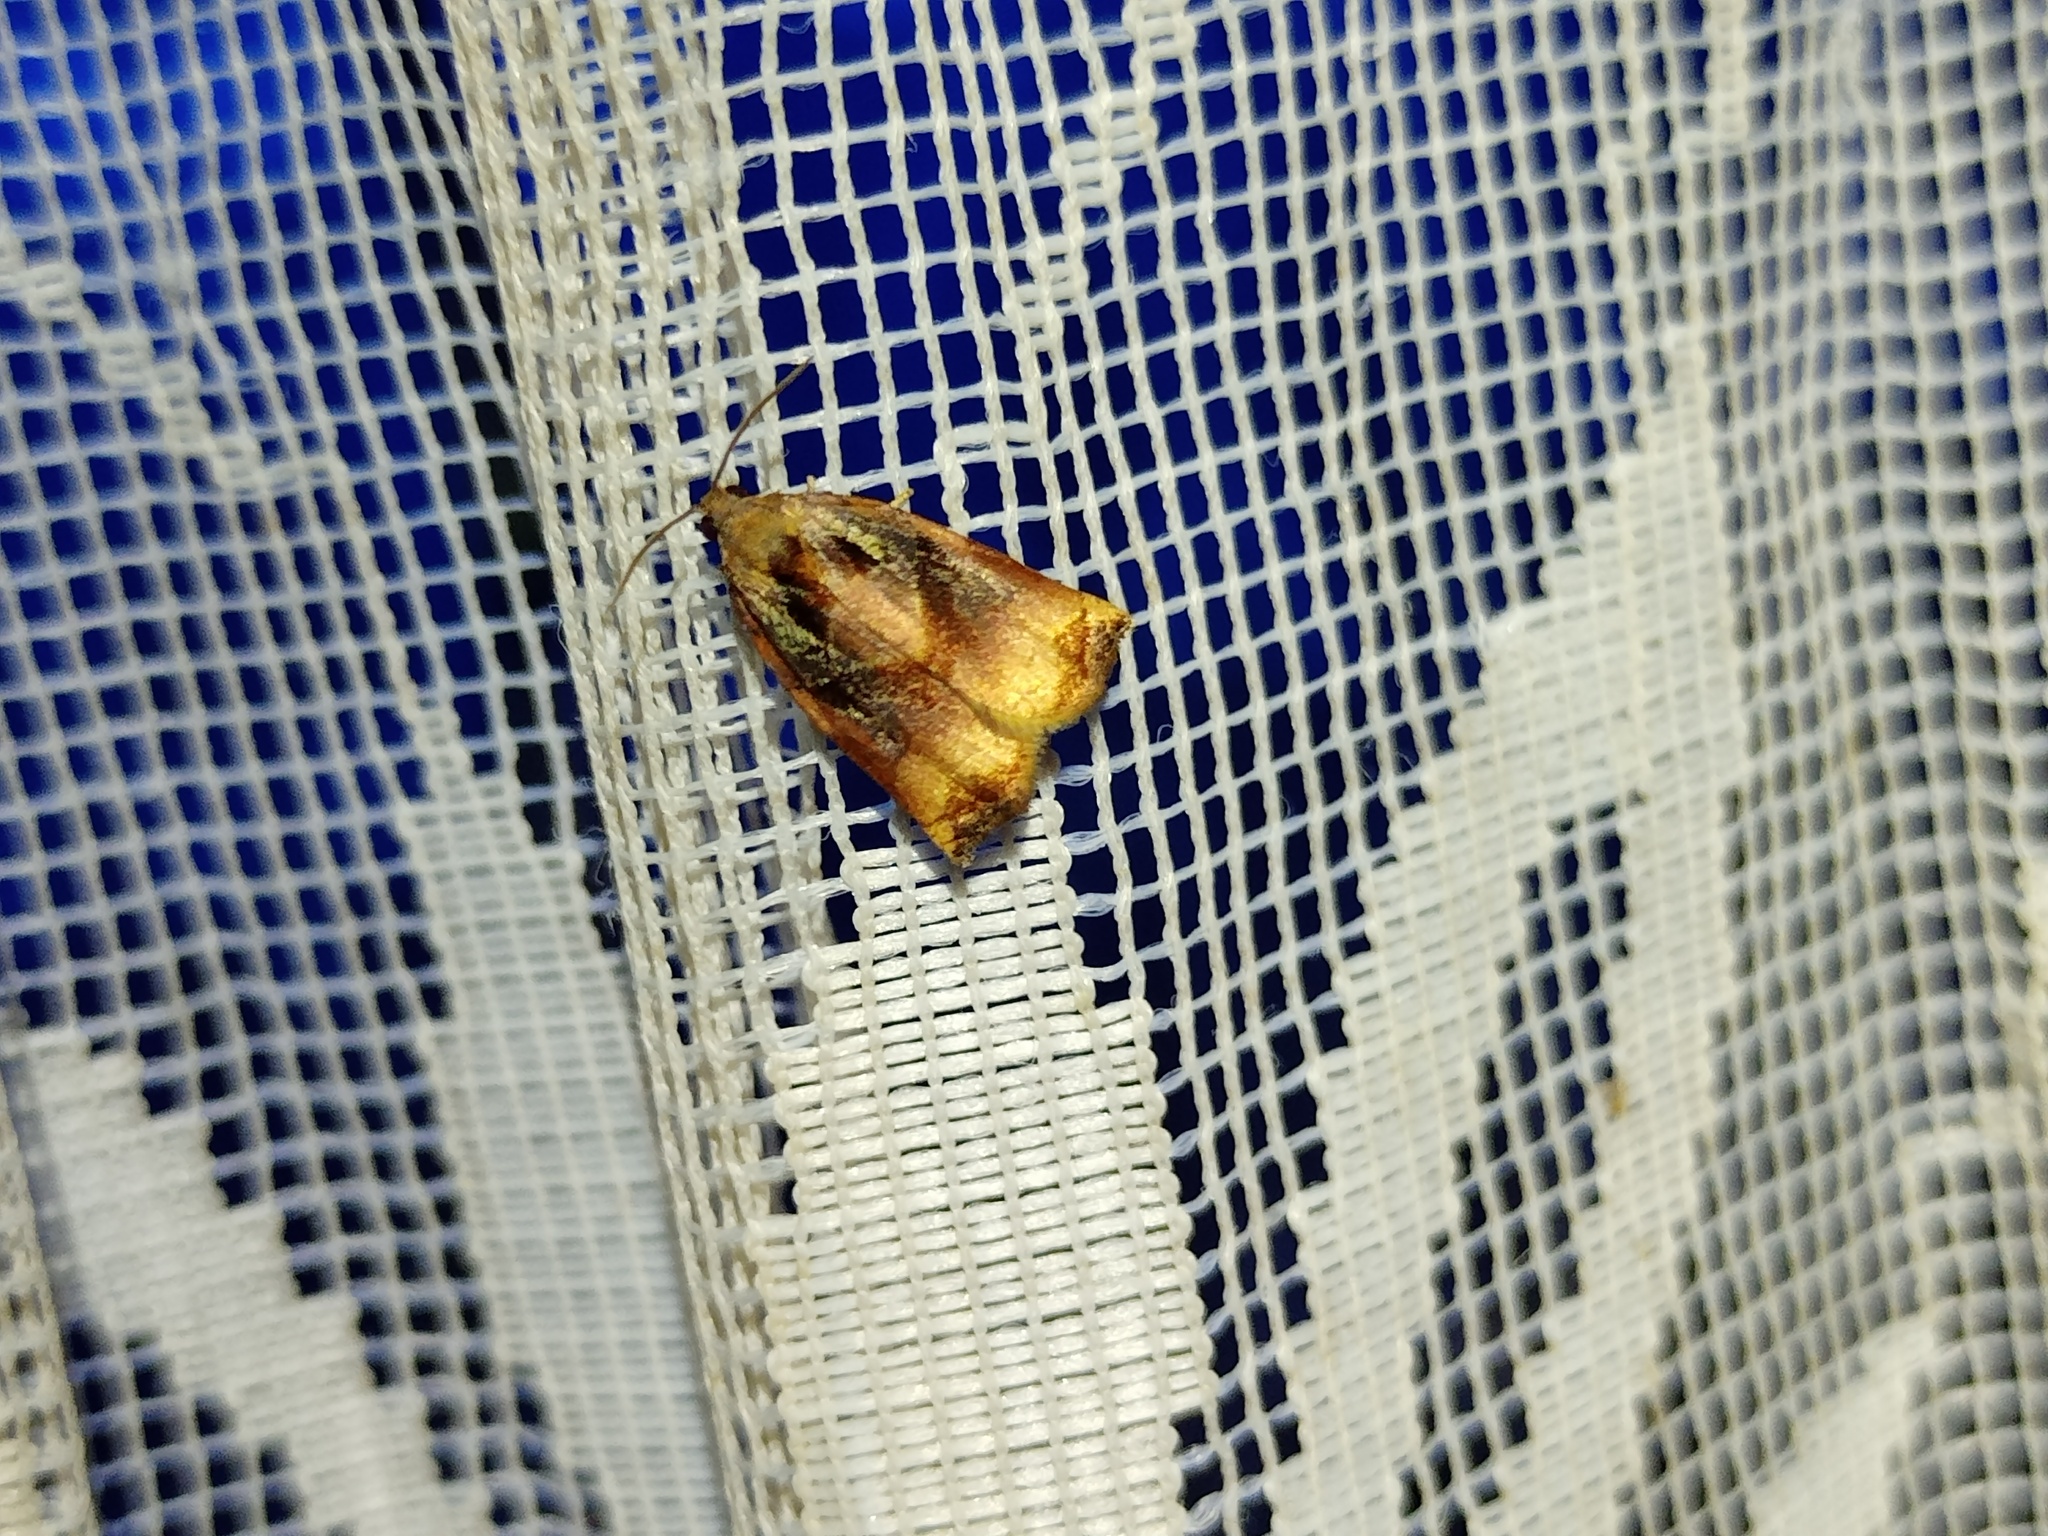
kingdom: Animalia
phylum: Arthropoda
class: Insecta
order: Lepidoptera
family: Tortricidae
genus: Archips
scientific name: Archips podana
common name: Large fruit-tree tortrix
